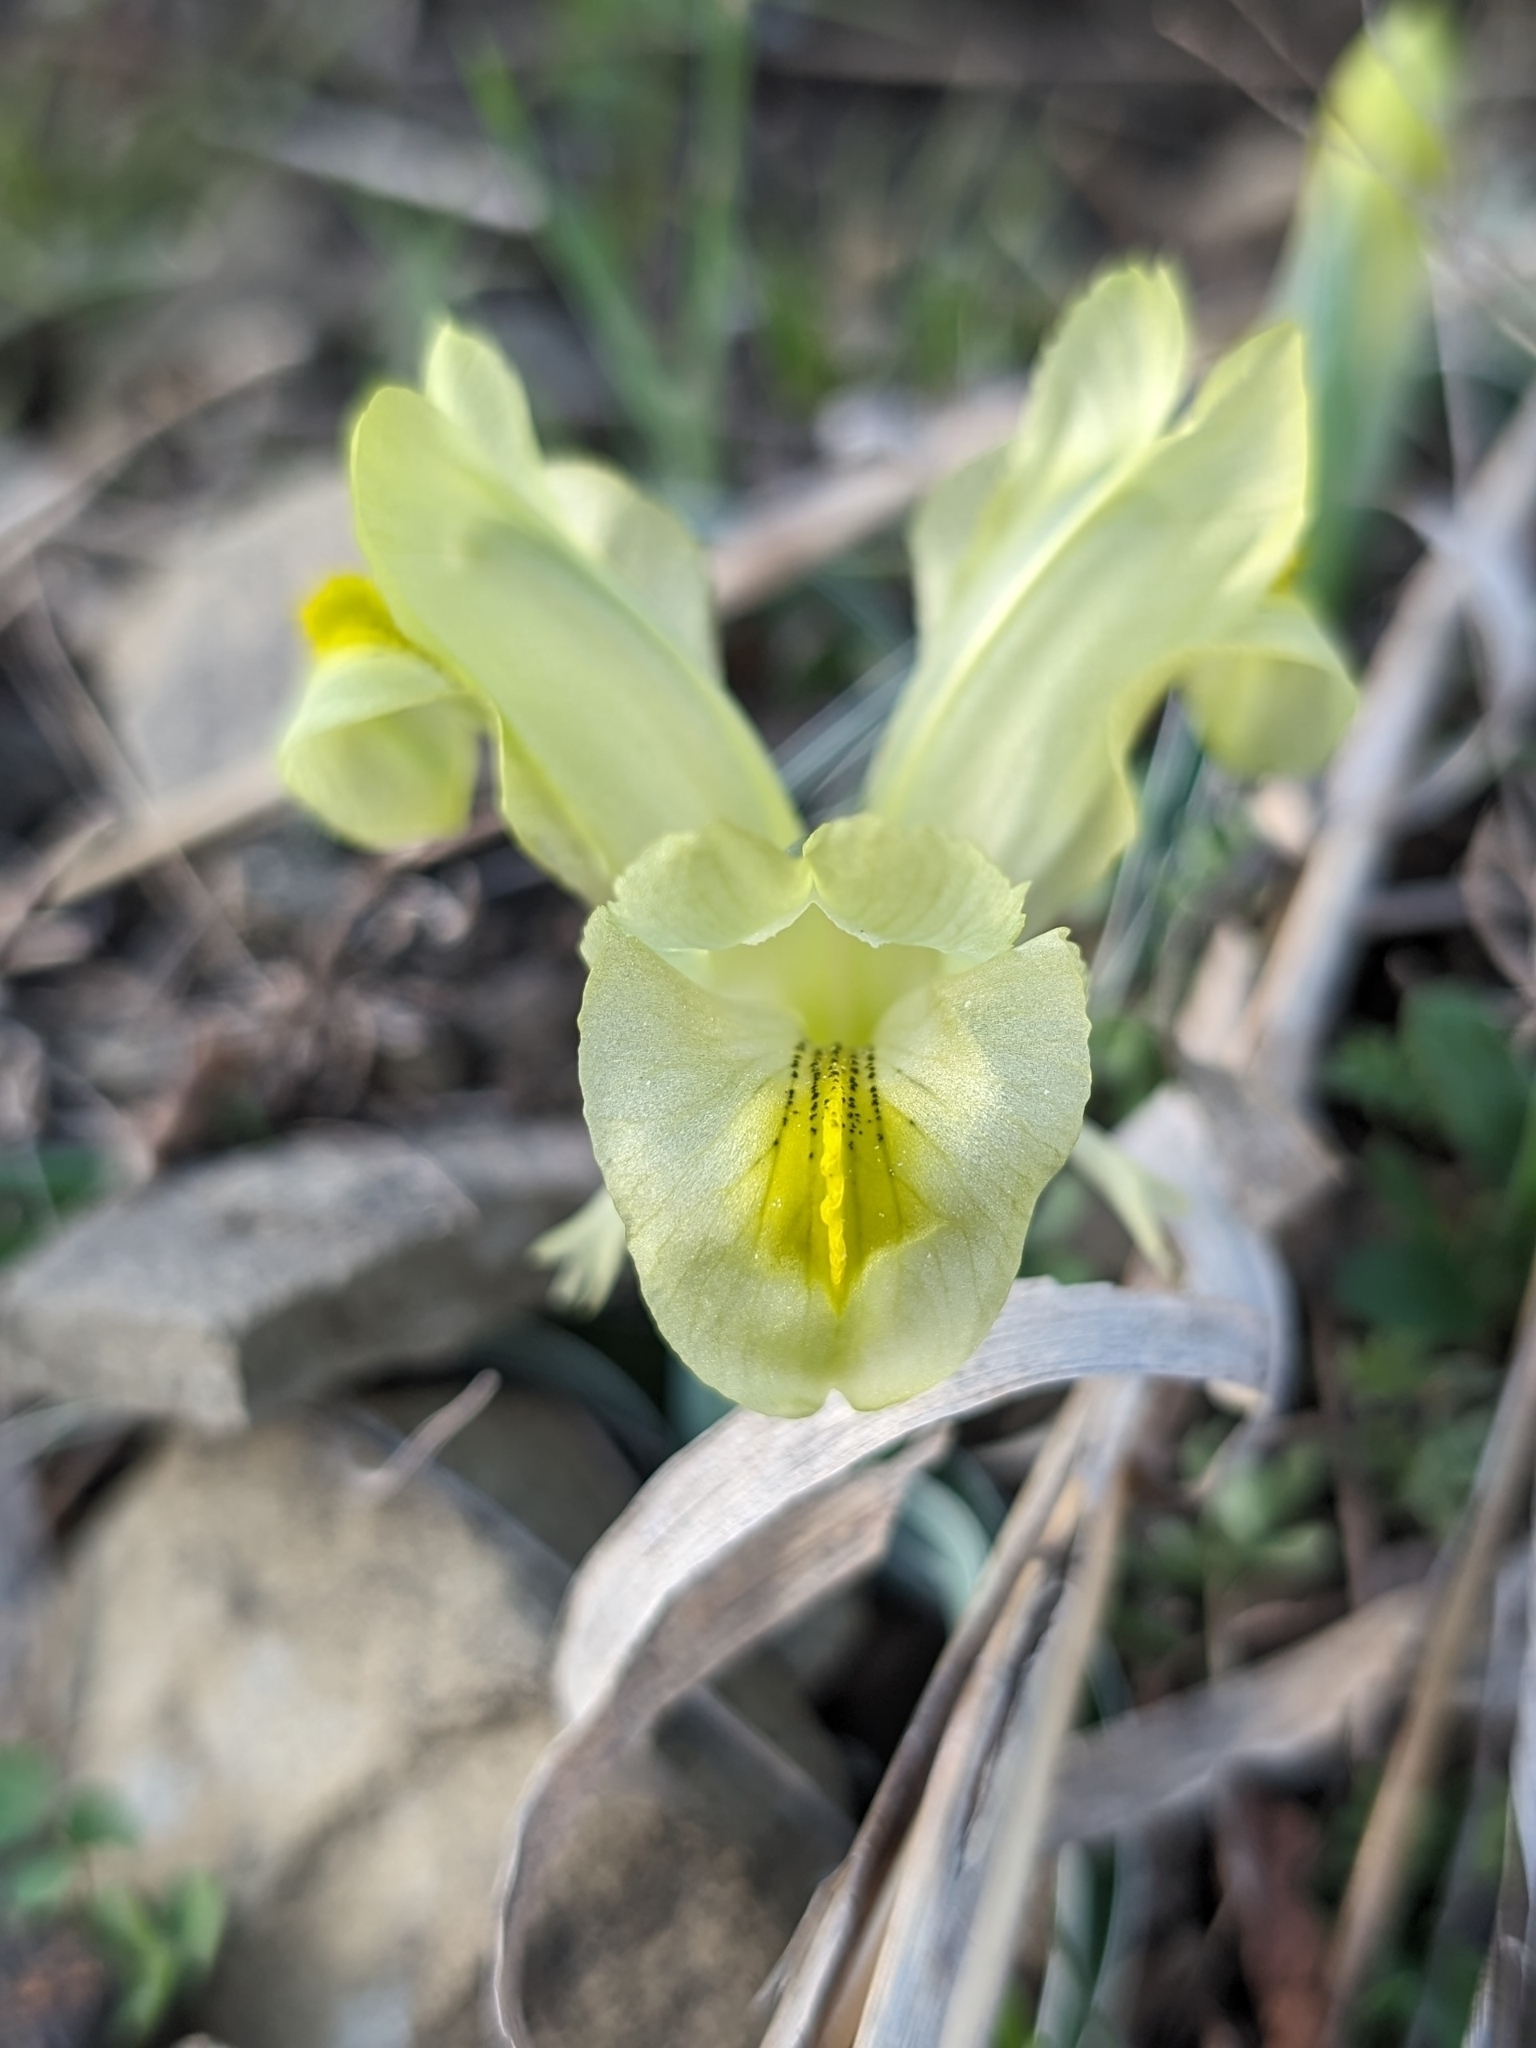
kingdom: Plantae
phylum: Tracheophyta
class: Liliopsida
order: Asparagales
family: Iridaceae
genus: Iris
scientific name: Iris caucasica
